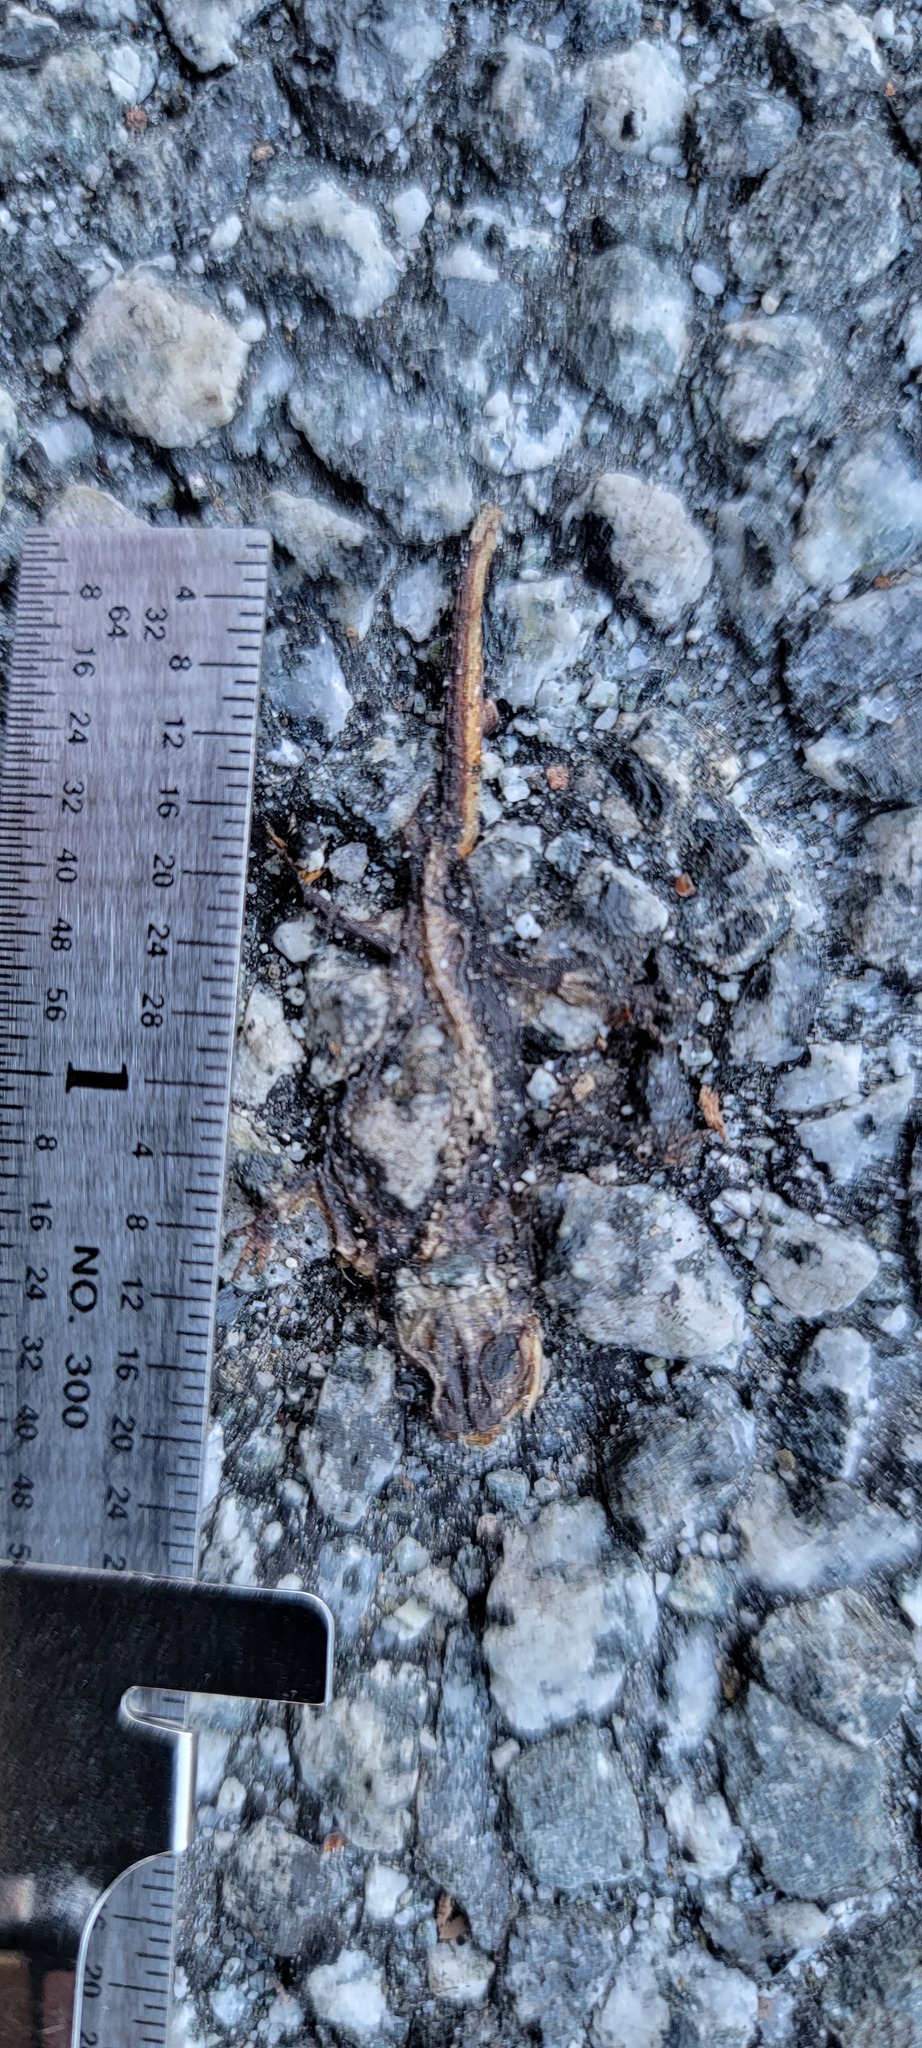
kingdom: Animalia
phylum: Chordata
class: Amphibia
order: Caudata
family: Salamandridae
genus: Taricha
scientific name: Taricha
